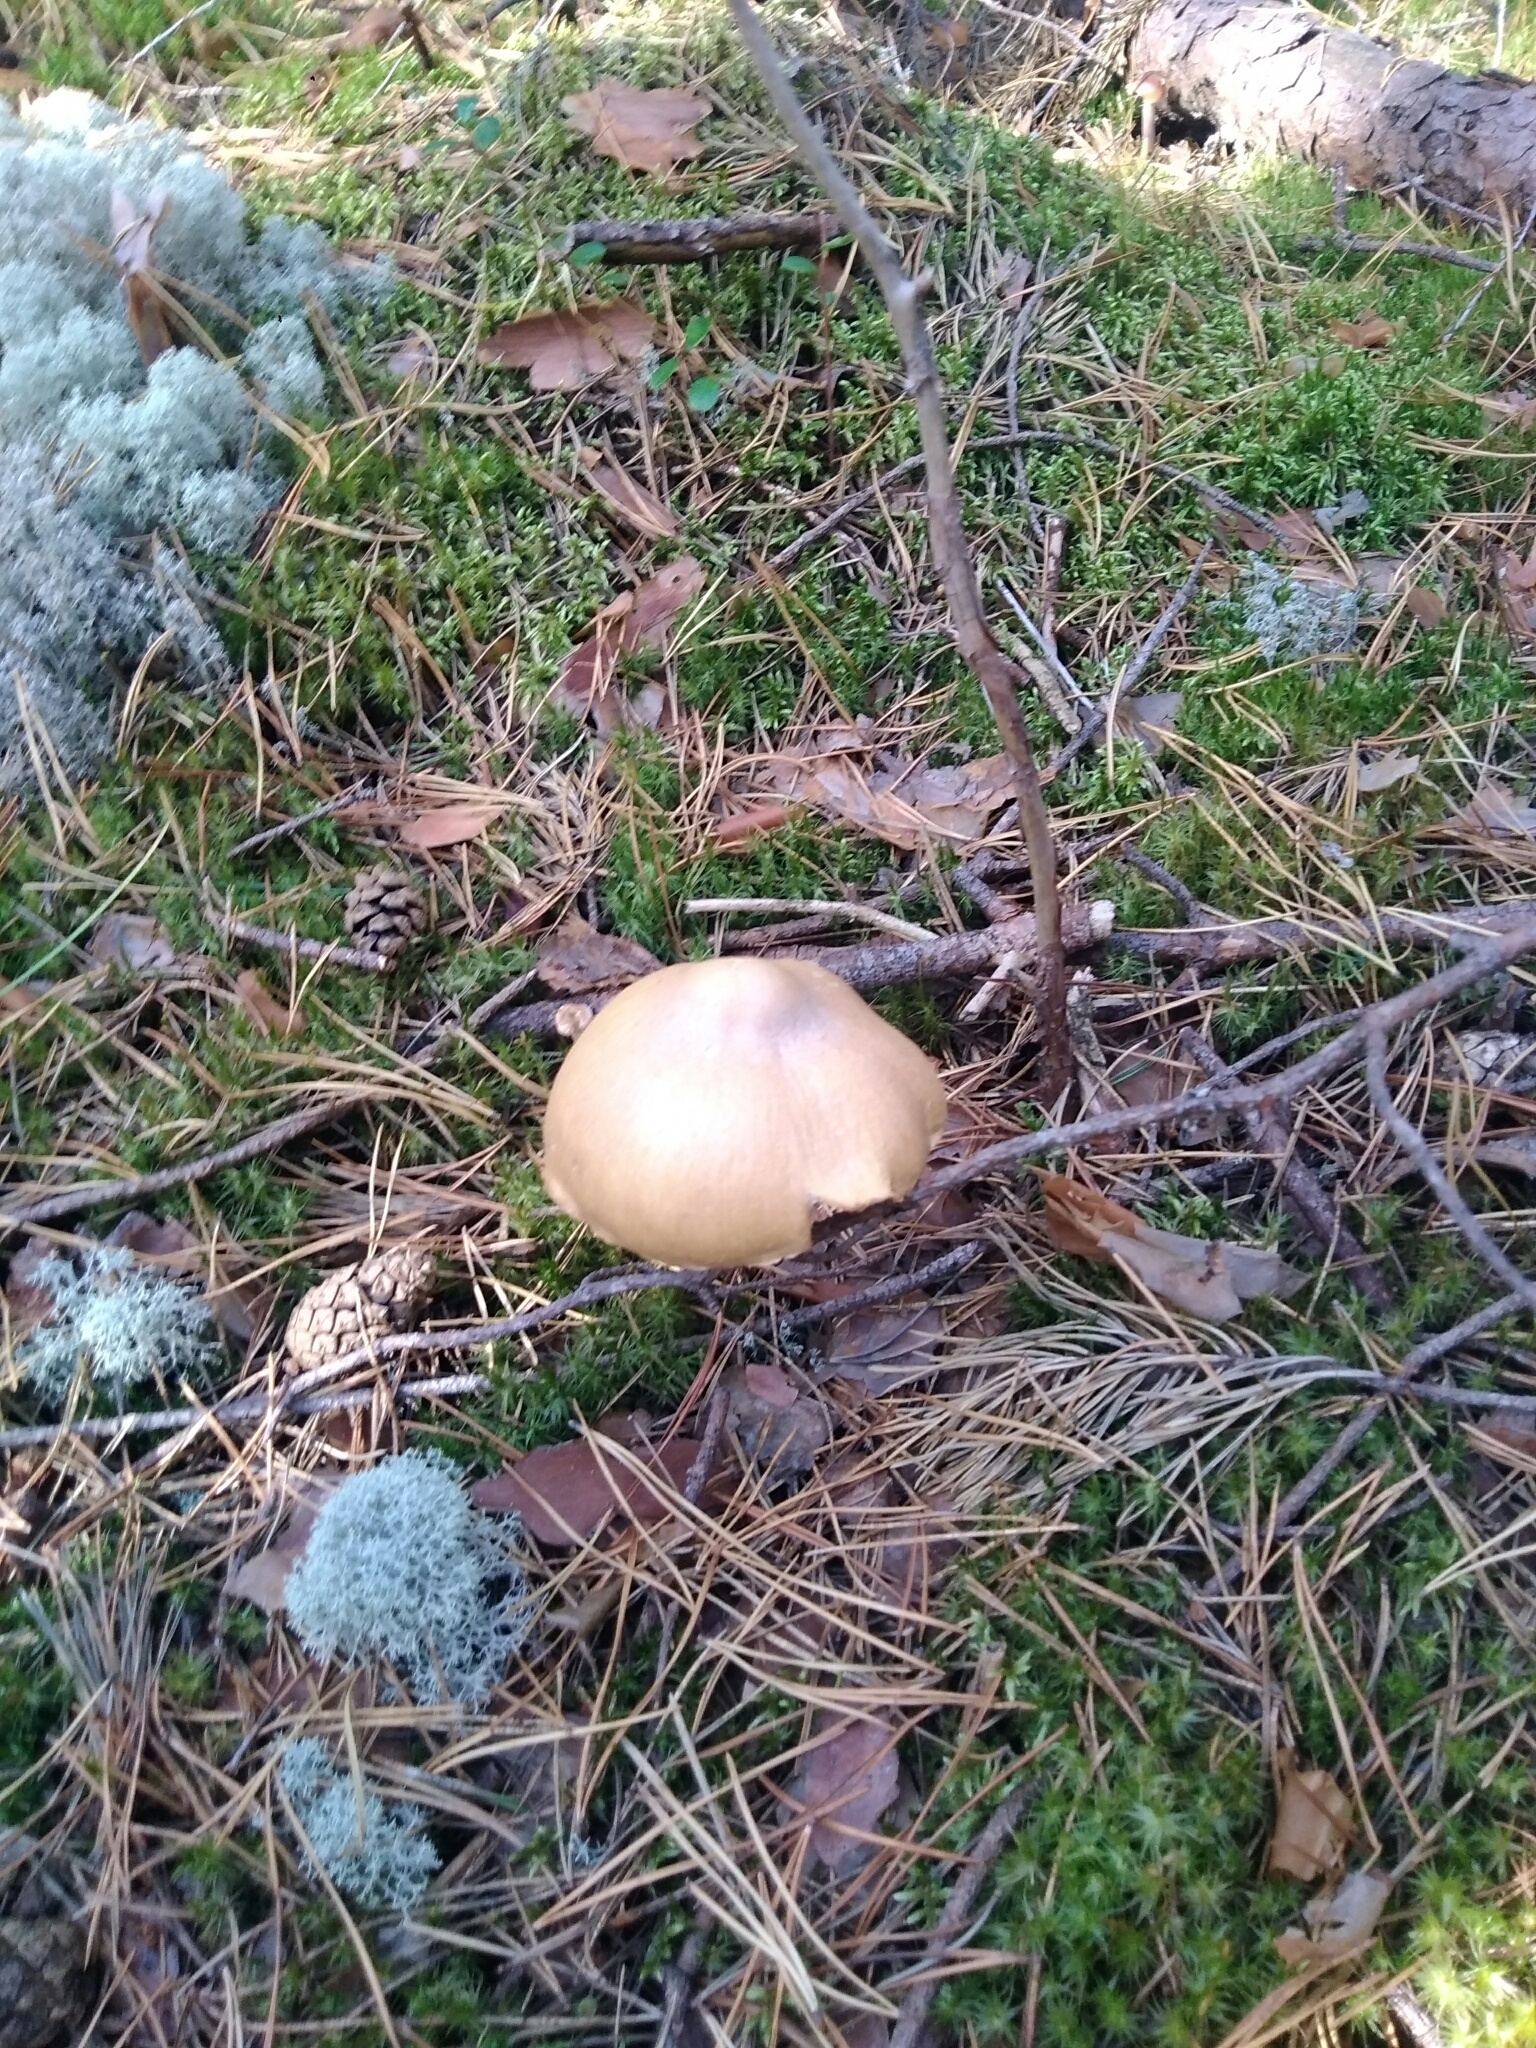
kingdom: Fungi
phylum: Basidiomycota
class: Agaricomycetes
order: Agaricales
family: Cortinariaceae
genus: Cortinarius
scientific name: Cortinarius caperatus
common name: The gypsy
